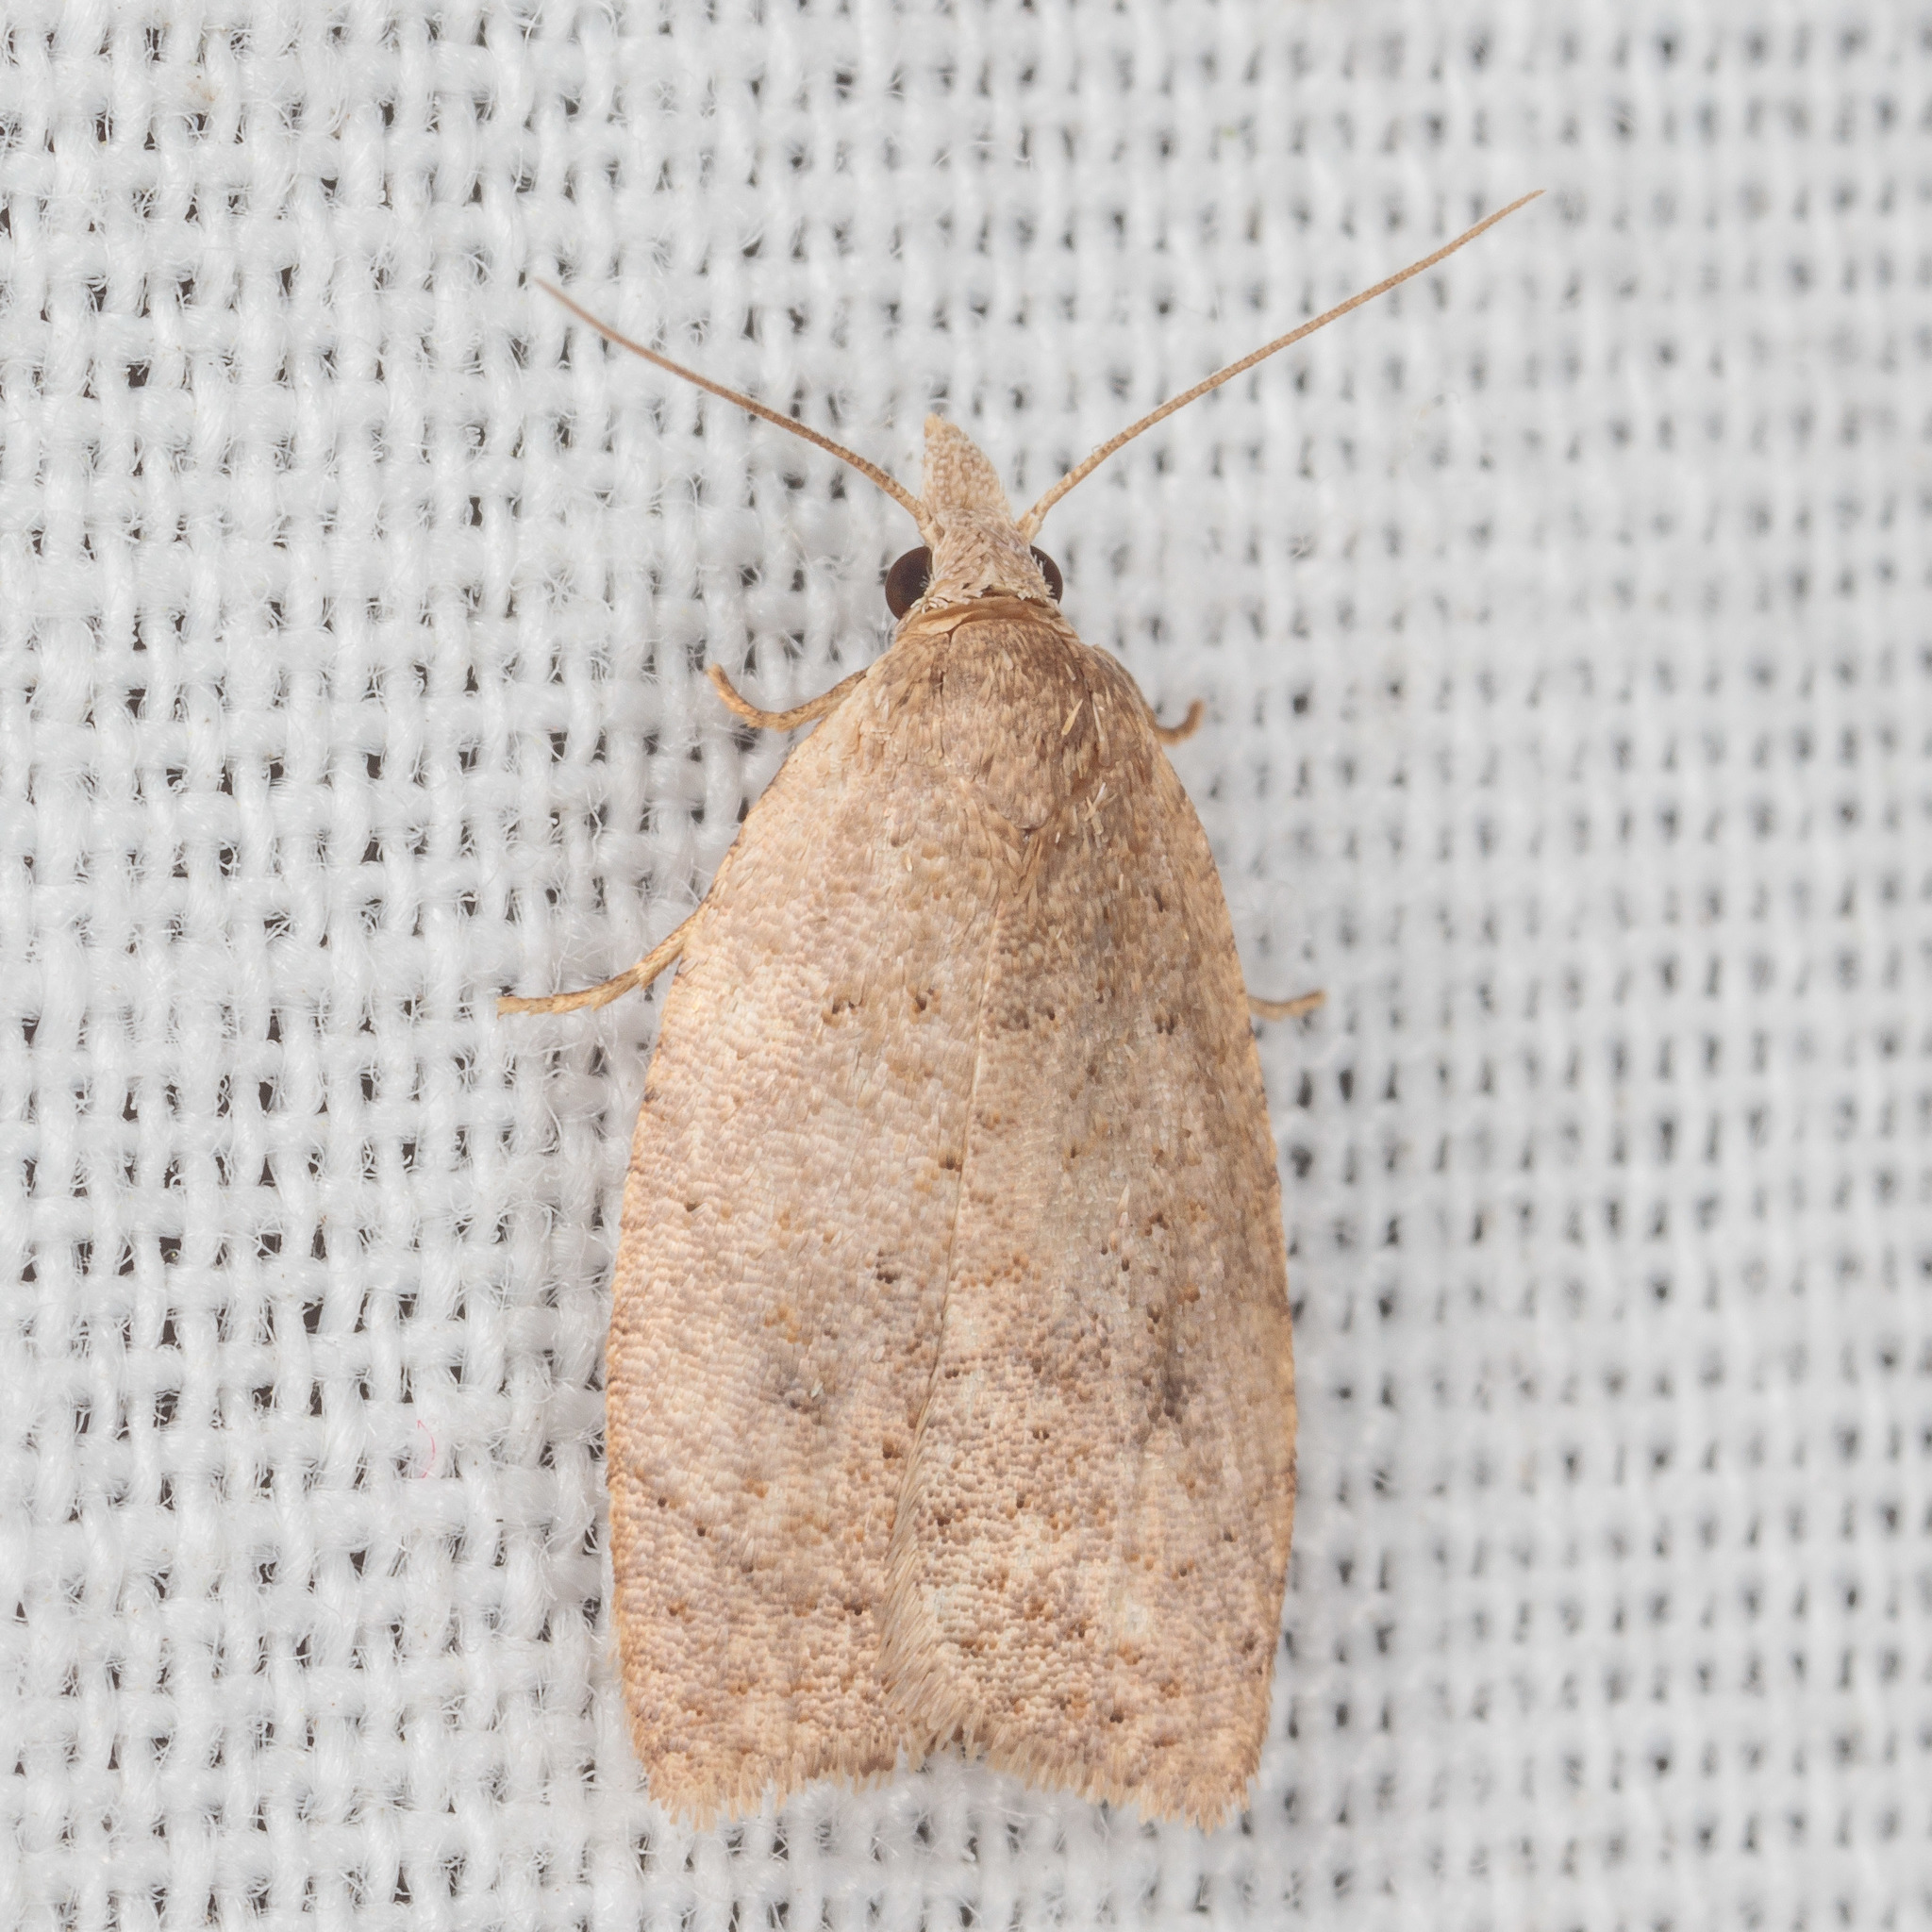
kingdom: Animalia
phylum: Arthropoda
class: Insecta
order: Lepidoptera
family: Tortricidae
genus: Sparganothoides
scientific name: Sparganothoides lentiginosana
